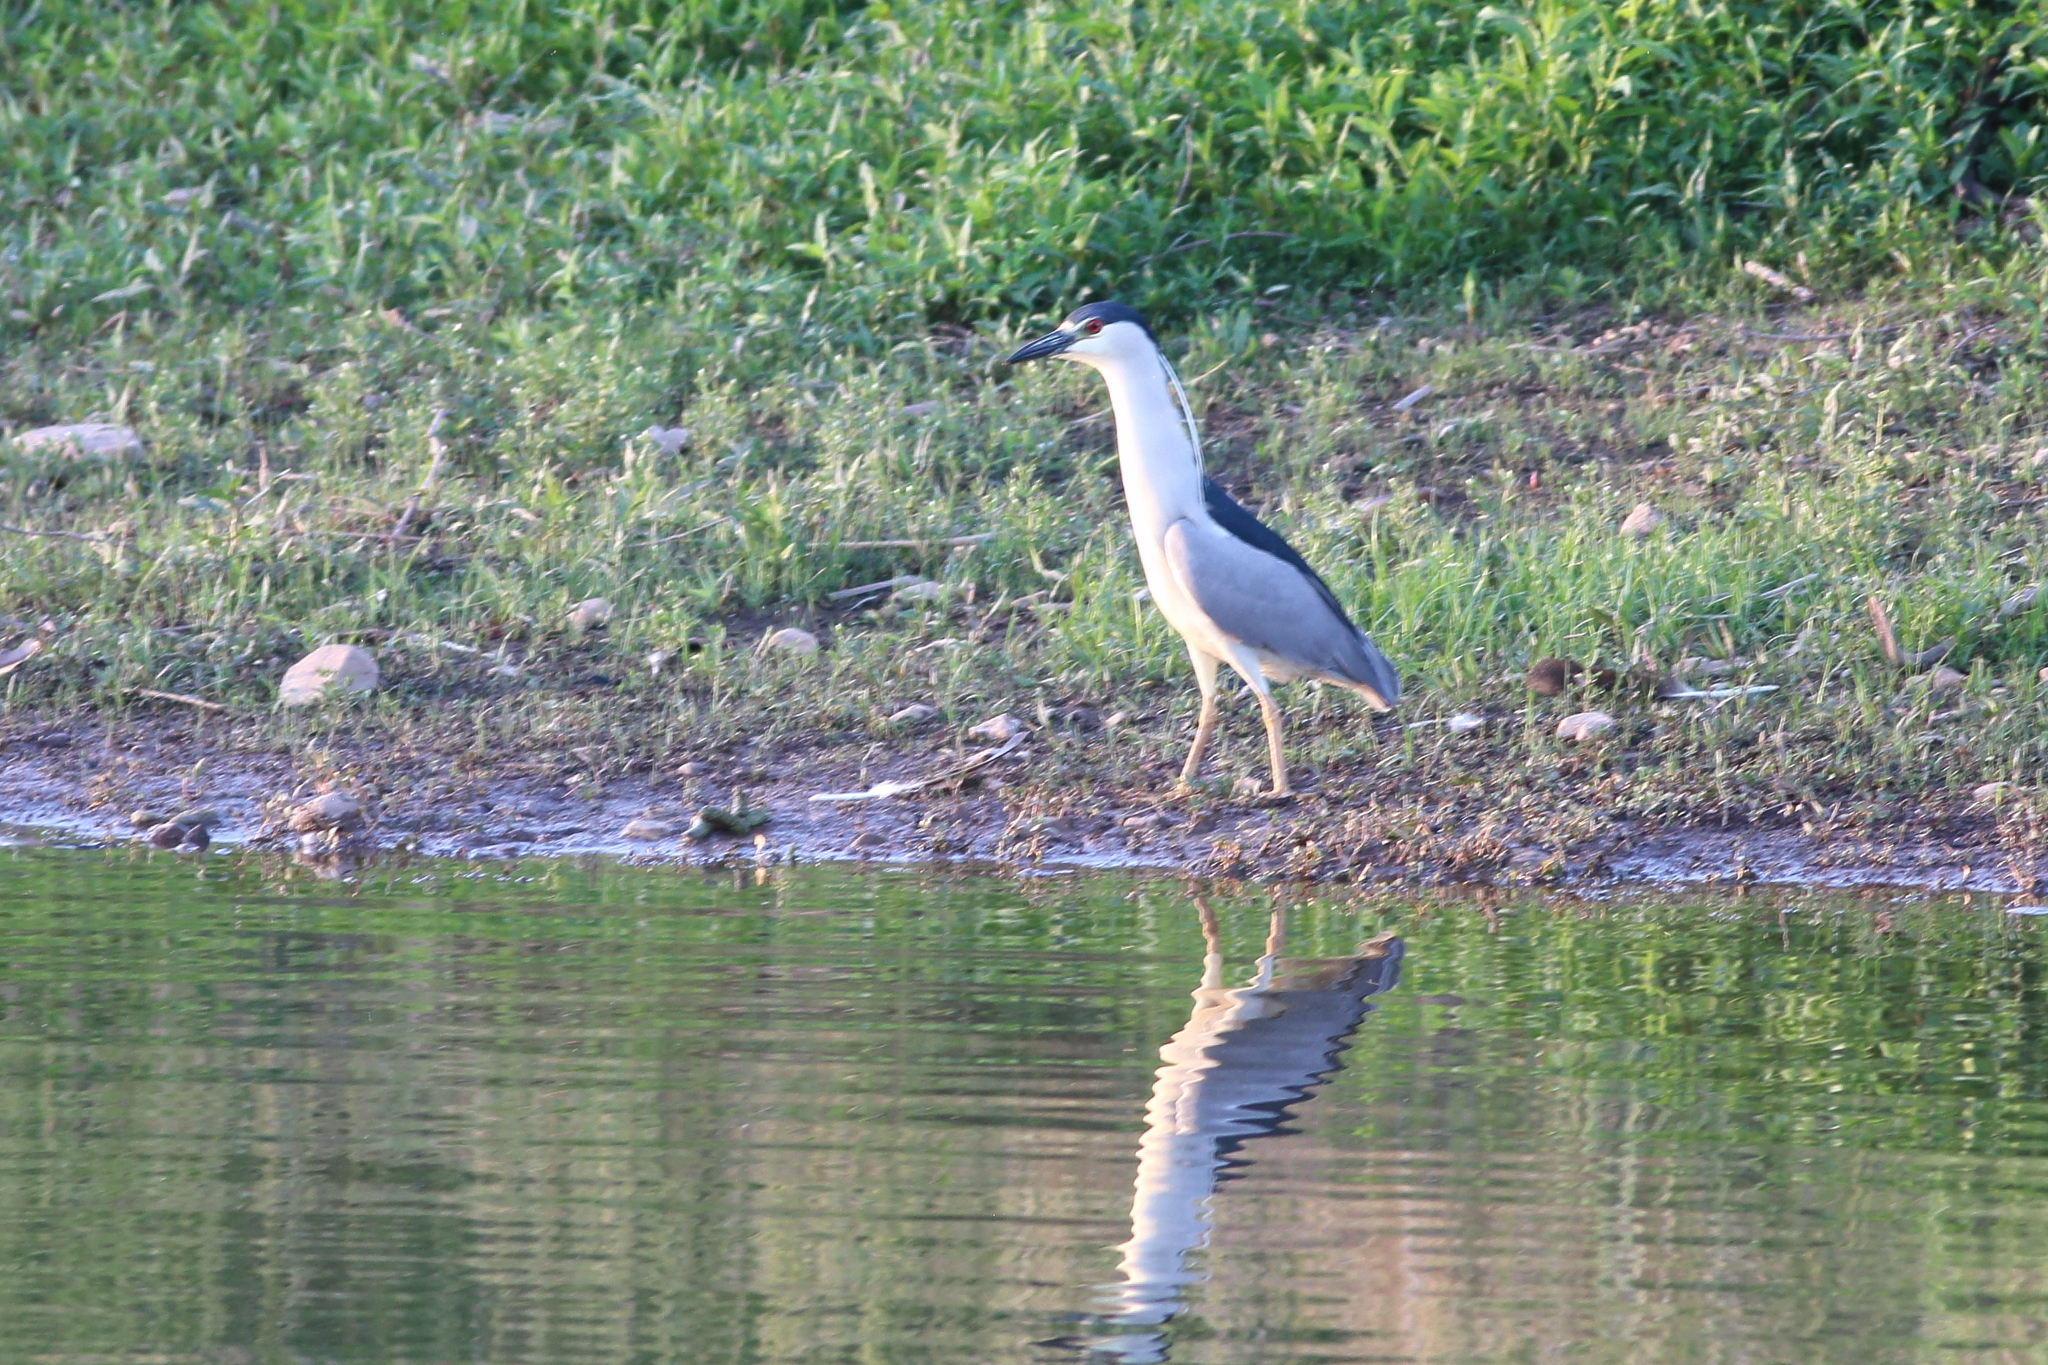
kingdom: Animalia
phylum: Chordata
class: Aves
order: Pelecaniformes
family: Ardeidae
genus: Nycticorax
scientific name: Nycticorax nycticorax
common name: Black-crowned night heron
